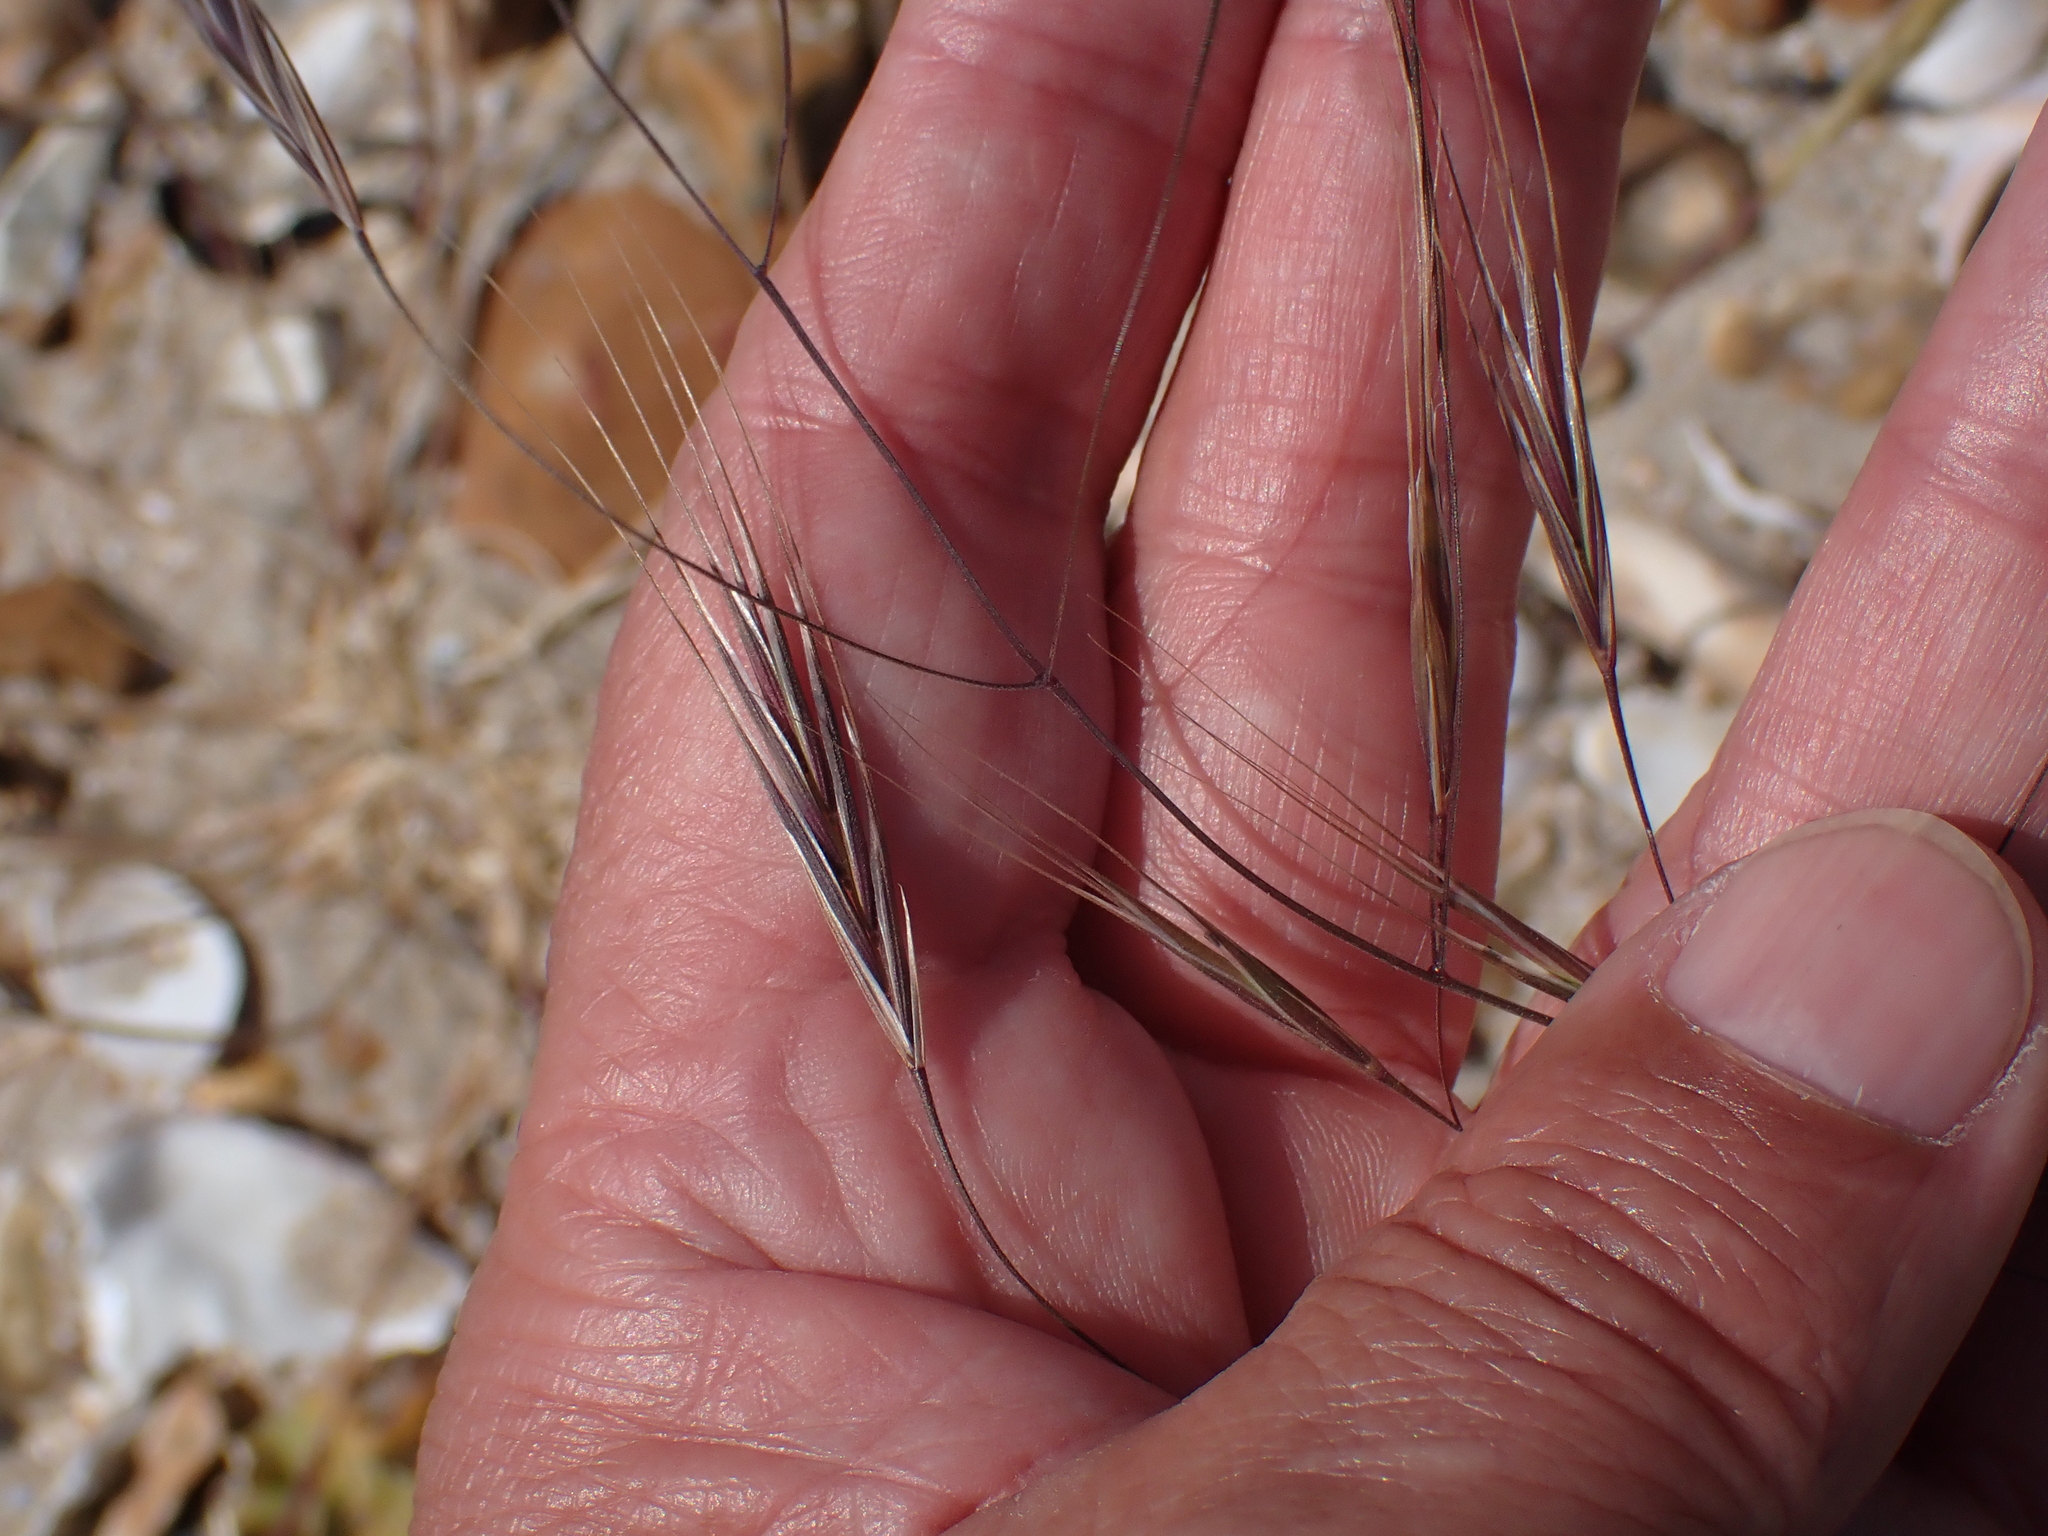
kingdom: Plantae
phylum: Tracheophyta
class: Liliopsida
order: Poales
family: Poaceae
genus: Bromus
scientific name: Bromus sterilis
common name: Poverty brome
